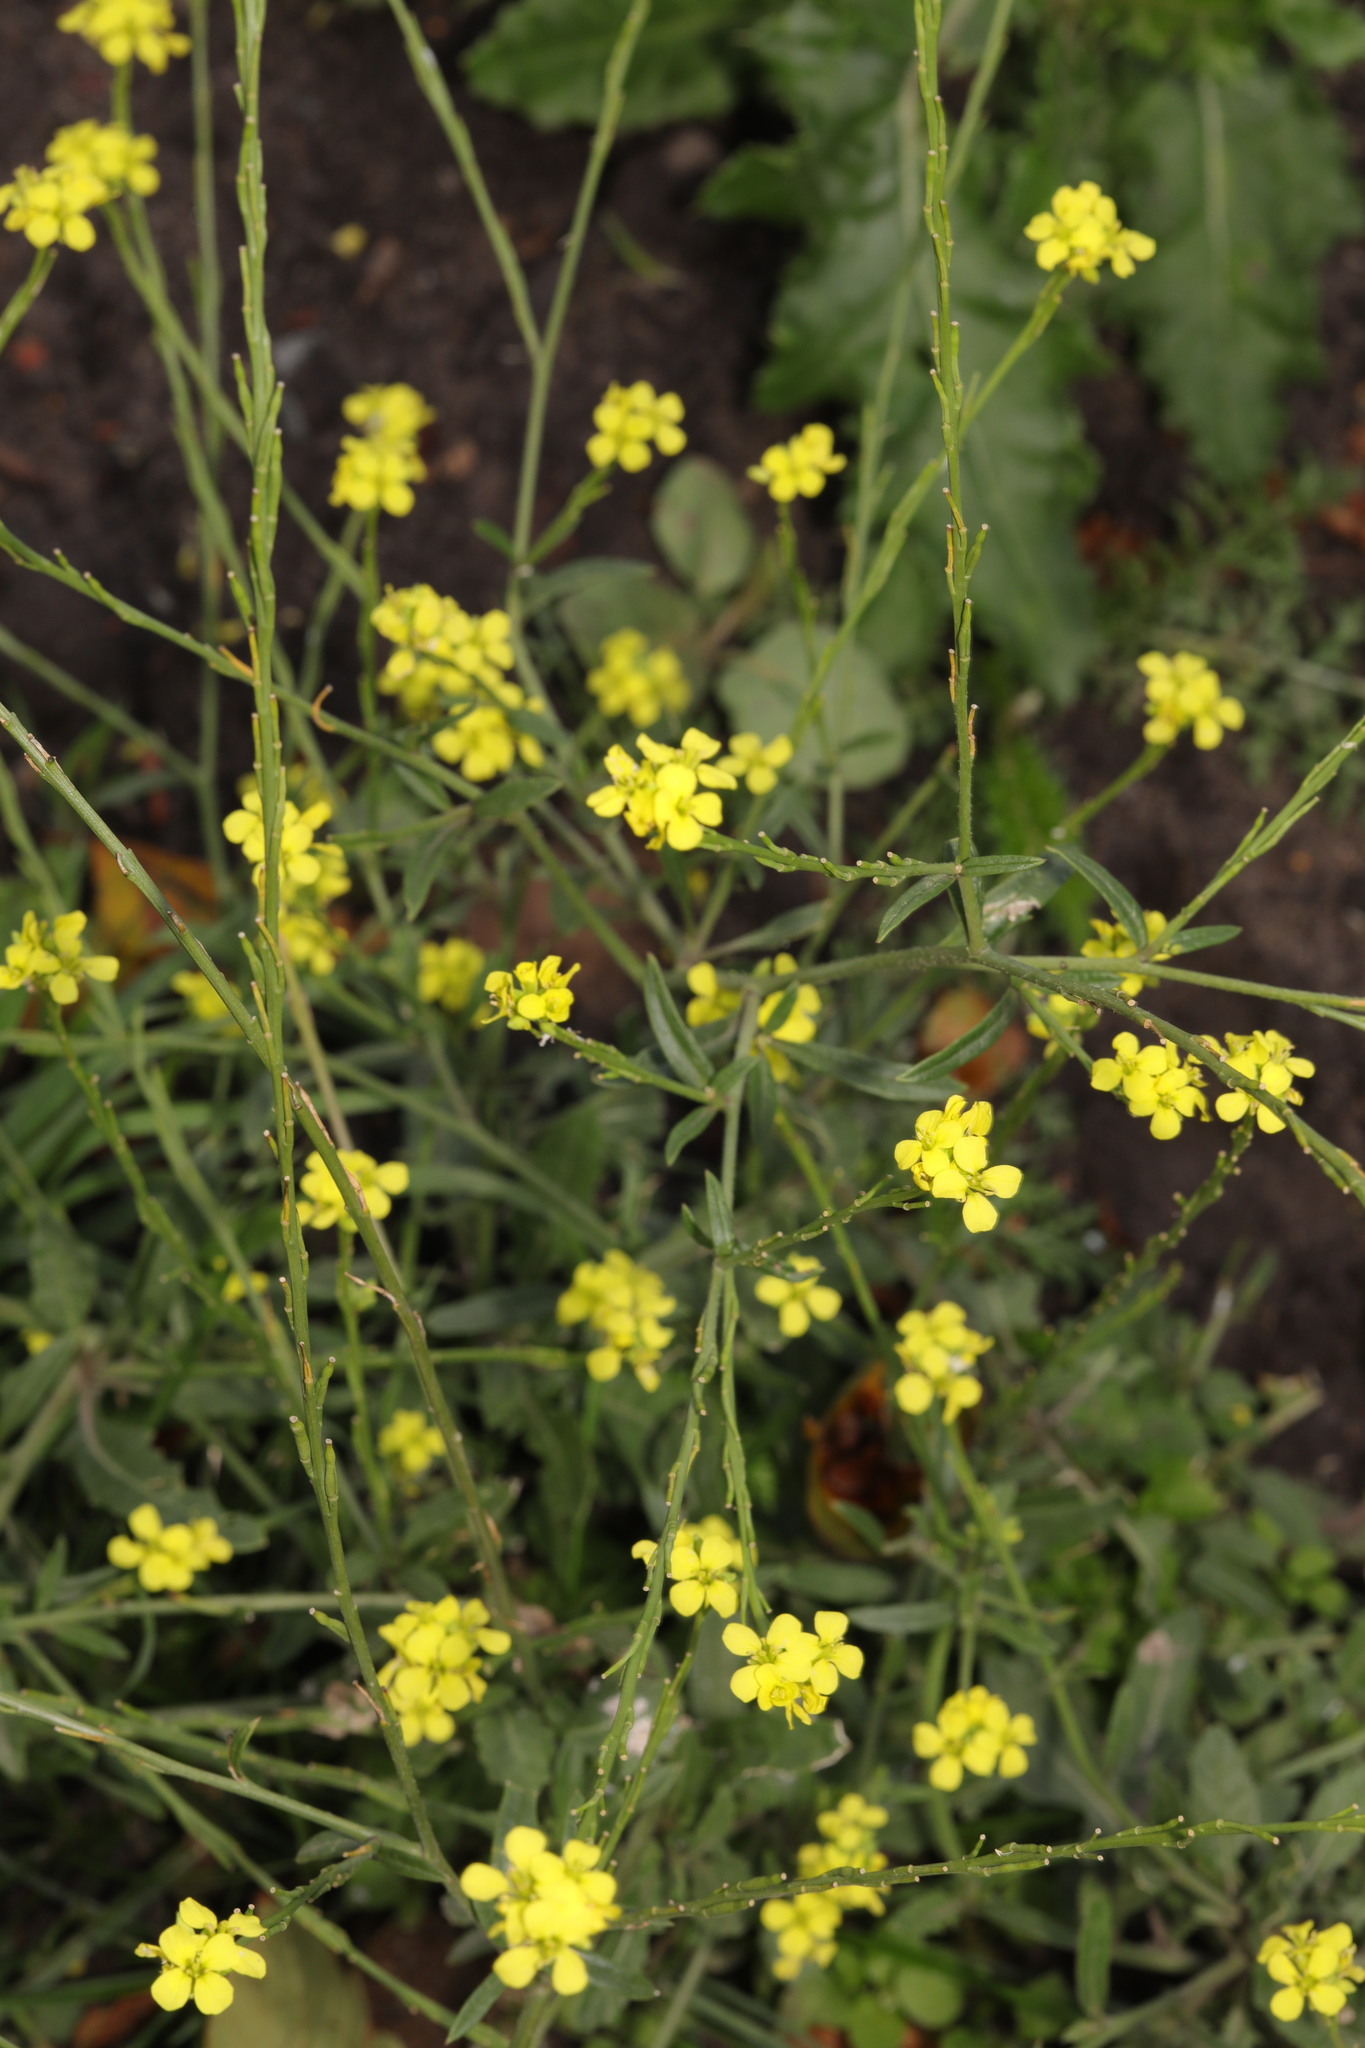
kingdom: Plantae
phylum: Tracheophyta
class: Magnoliopsida
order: Brassicales
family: Brassicaceae
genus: Hirschfeldia
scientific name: Hirschfeldia incana
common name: Hoary mustard
